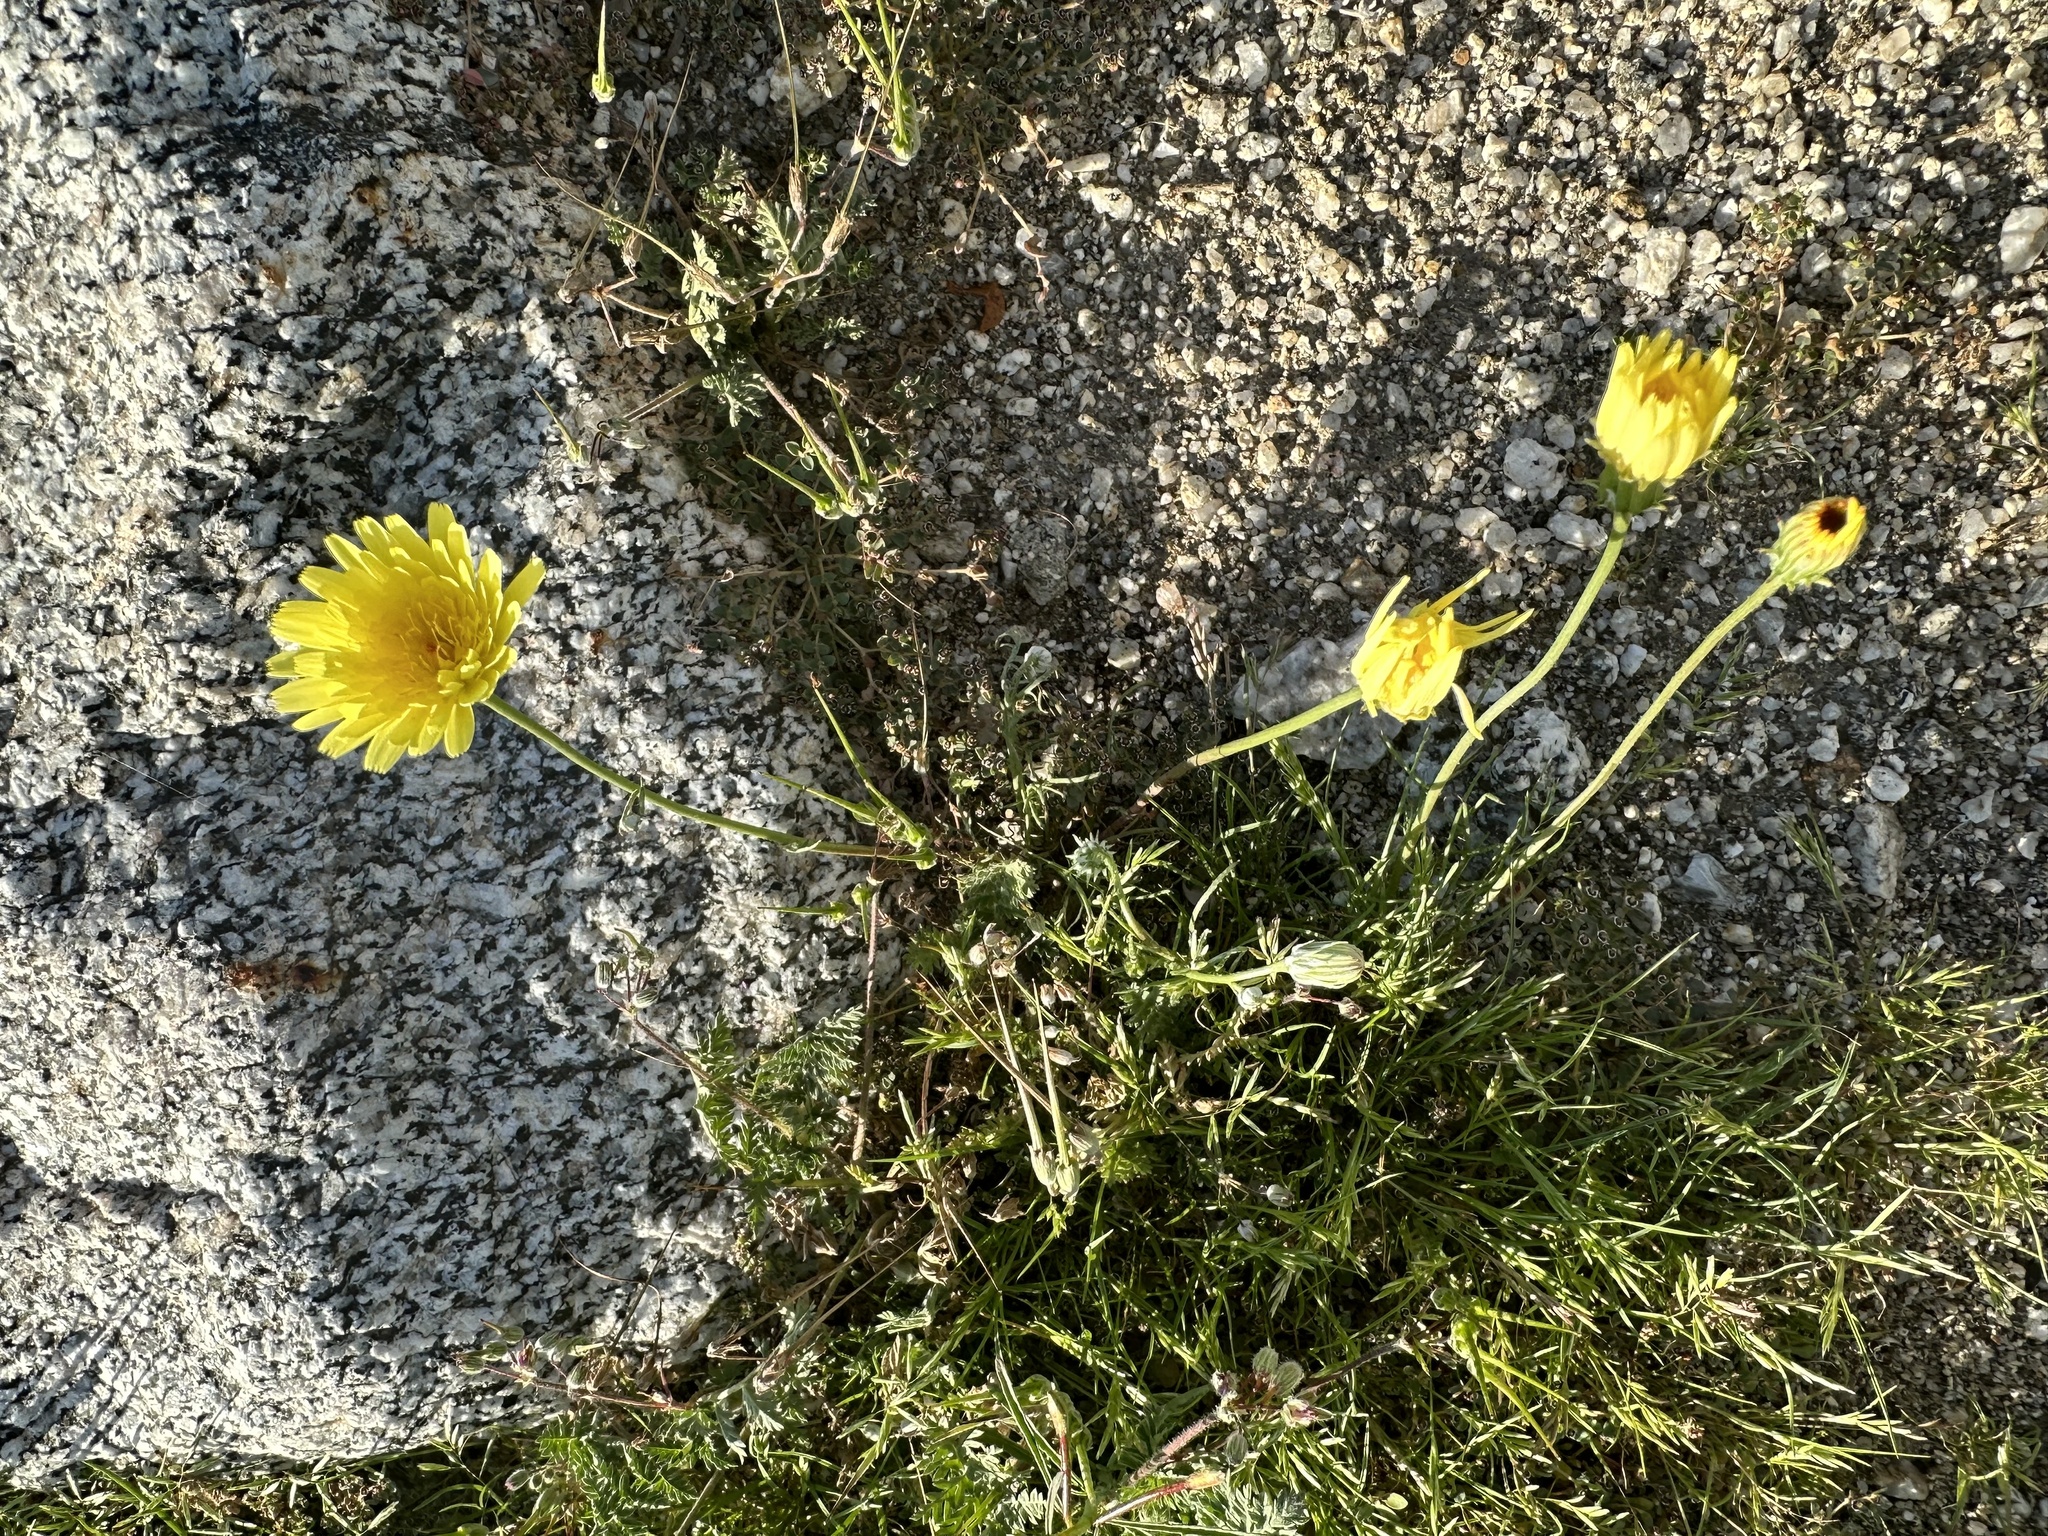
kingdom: Plantae
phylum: Tracheophyta
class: Magnoliopsida
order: Asterales
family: Asteraceae
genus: Malacothrix
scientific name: Malacothrix glabrata
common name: Smooth desert-dandelion
